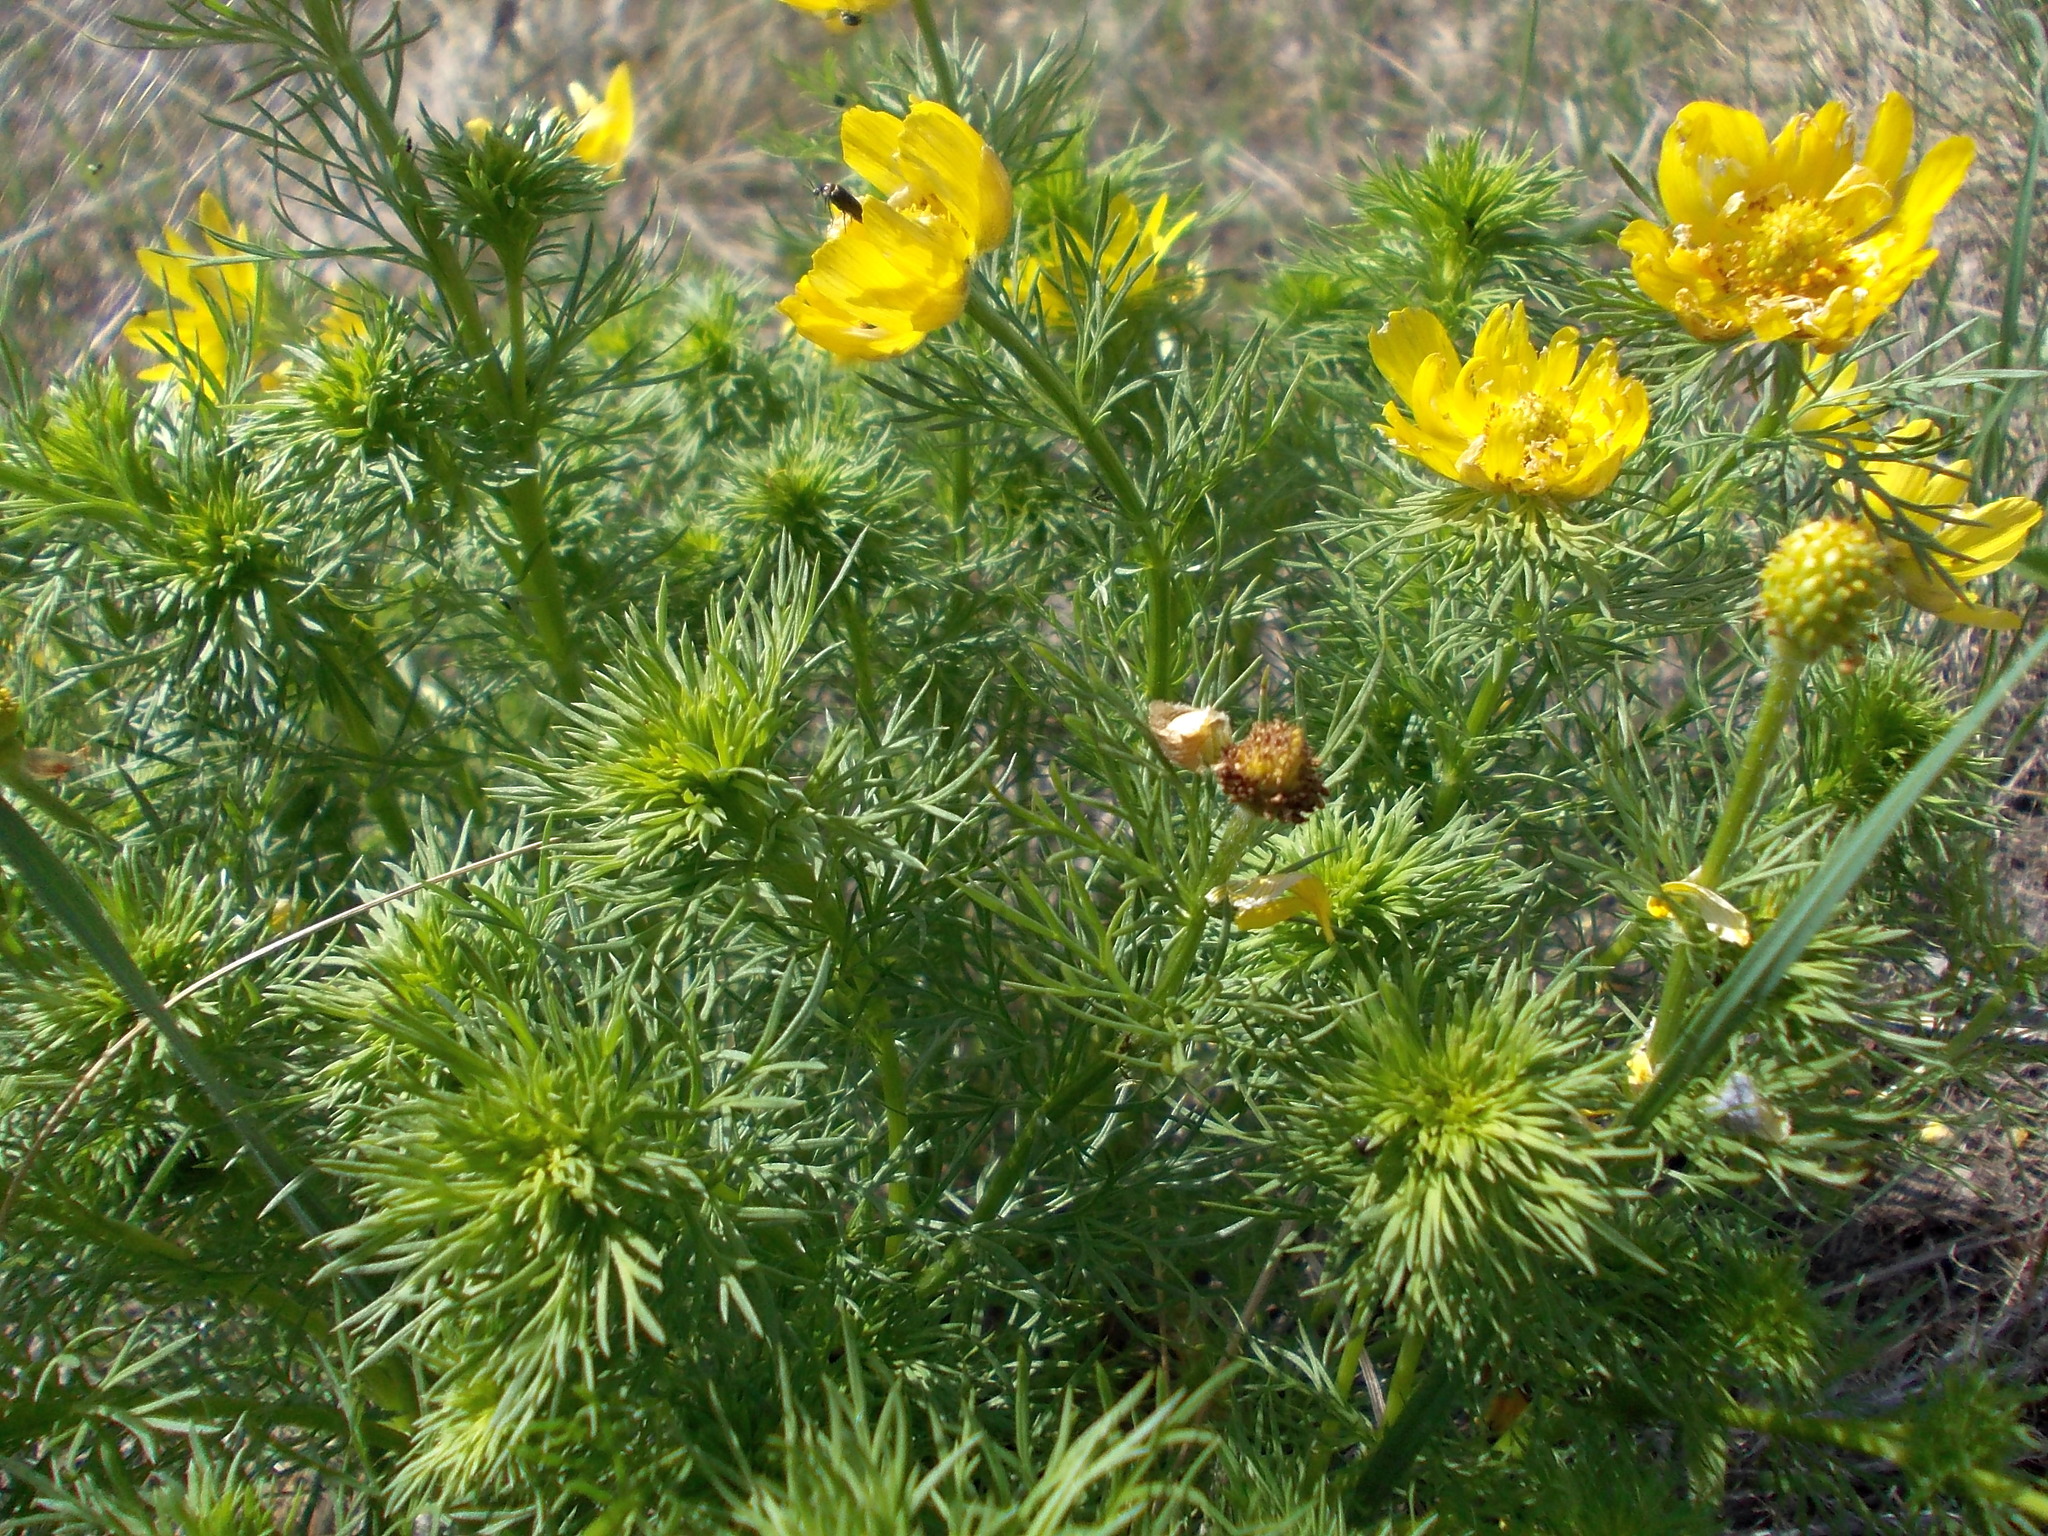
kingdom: Plantae
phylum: Tracheophyta
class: Magnoliopsida
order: Ranunculales
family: Ranunculaceae
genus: Adonis
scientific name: Adonis vernalis
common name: Yellow pheasants-eye
